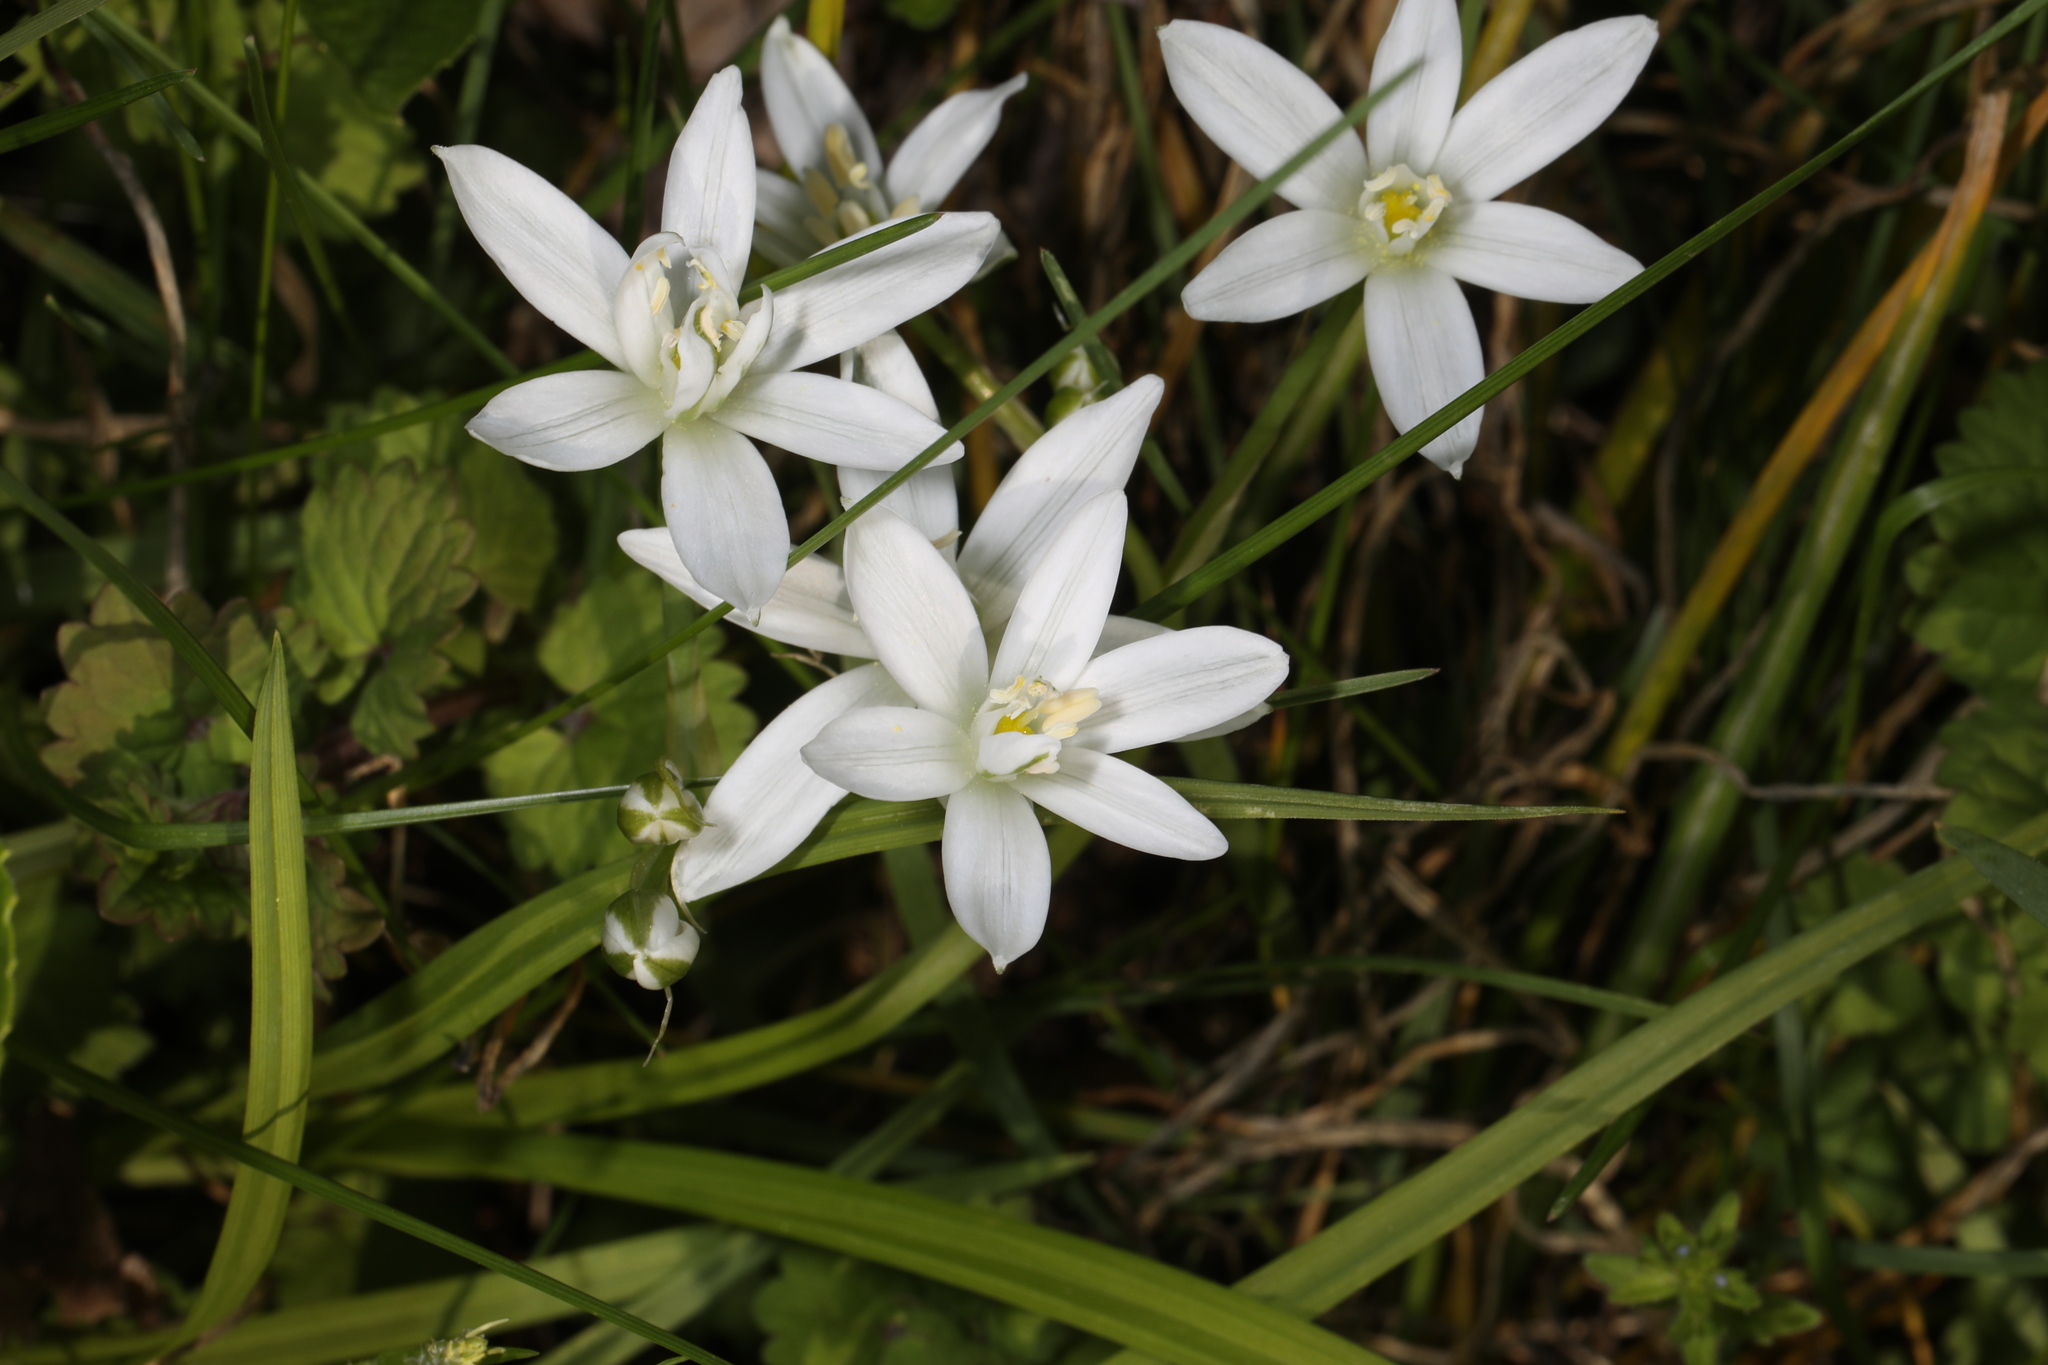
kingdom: Plantae
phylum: Tracheophyta
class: Liliopsida
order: Asparagales
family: Asparagaceae
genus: Ornithogalum
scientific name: Ornithogalum umbellatum
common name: Garden star-of-bethlehem
